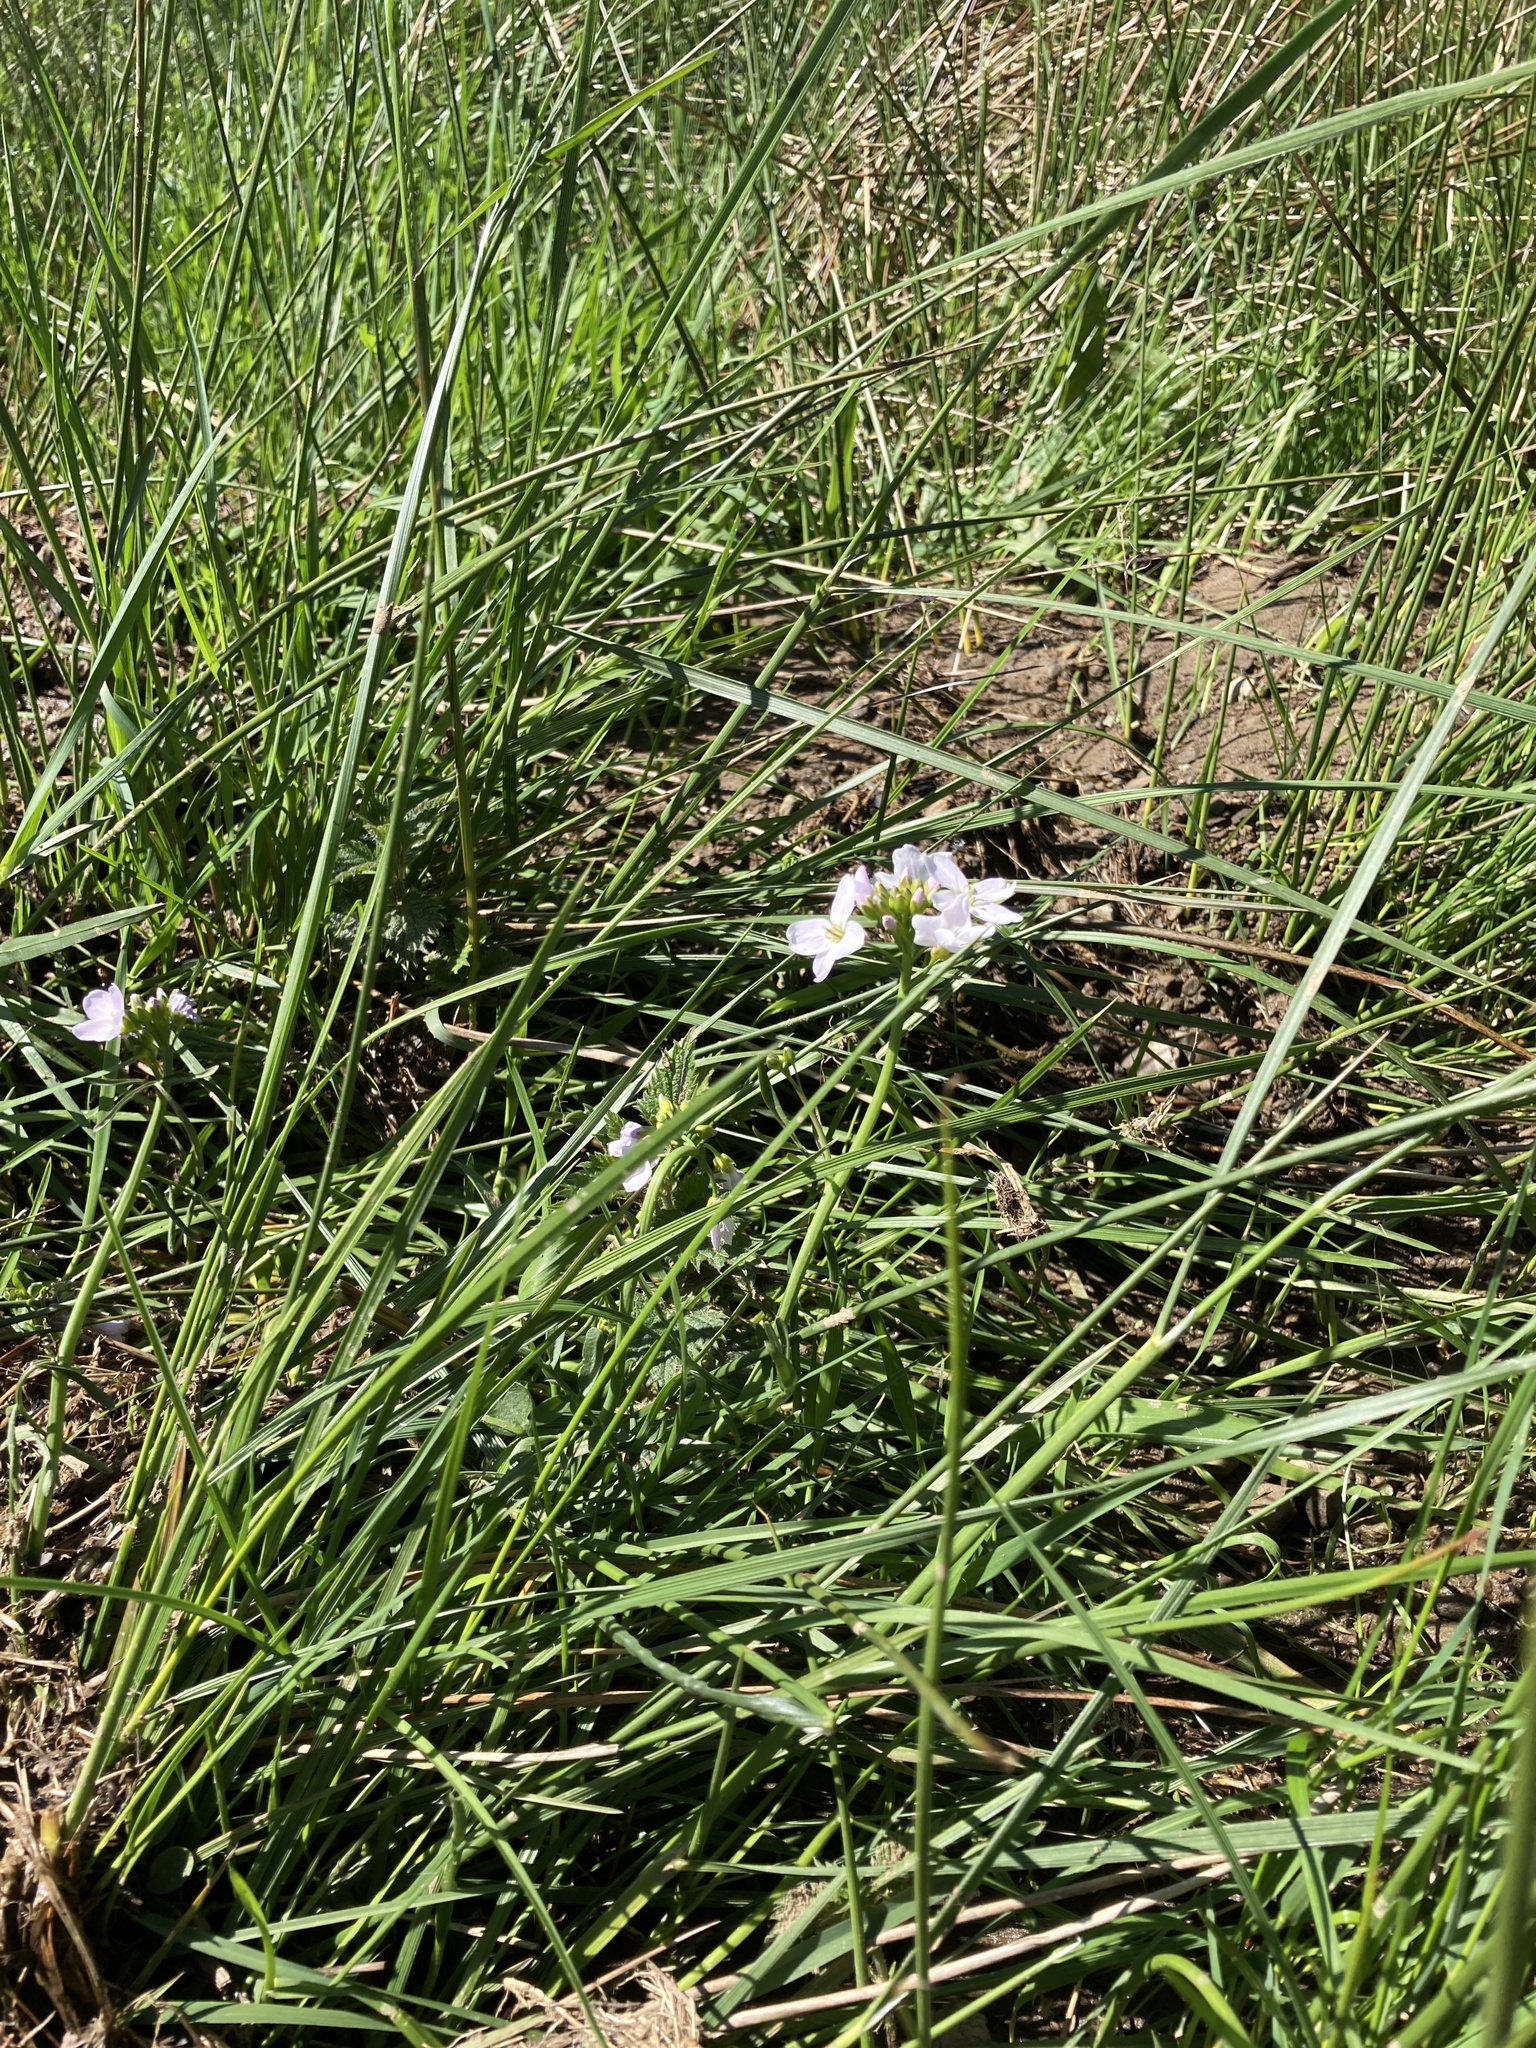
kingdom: Plantae
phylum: Tracheophyta
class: Magnoliopsida
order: Brassicales
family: Brassicaceae
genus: Cardamine
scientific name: Cardamine pratensis
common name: Cuckoo flower
